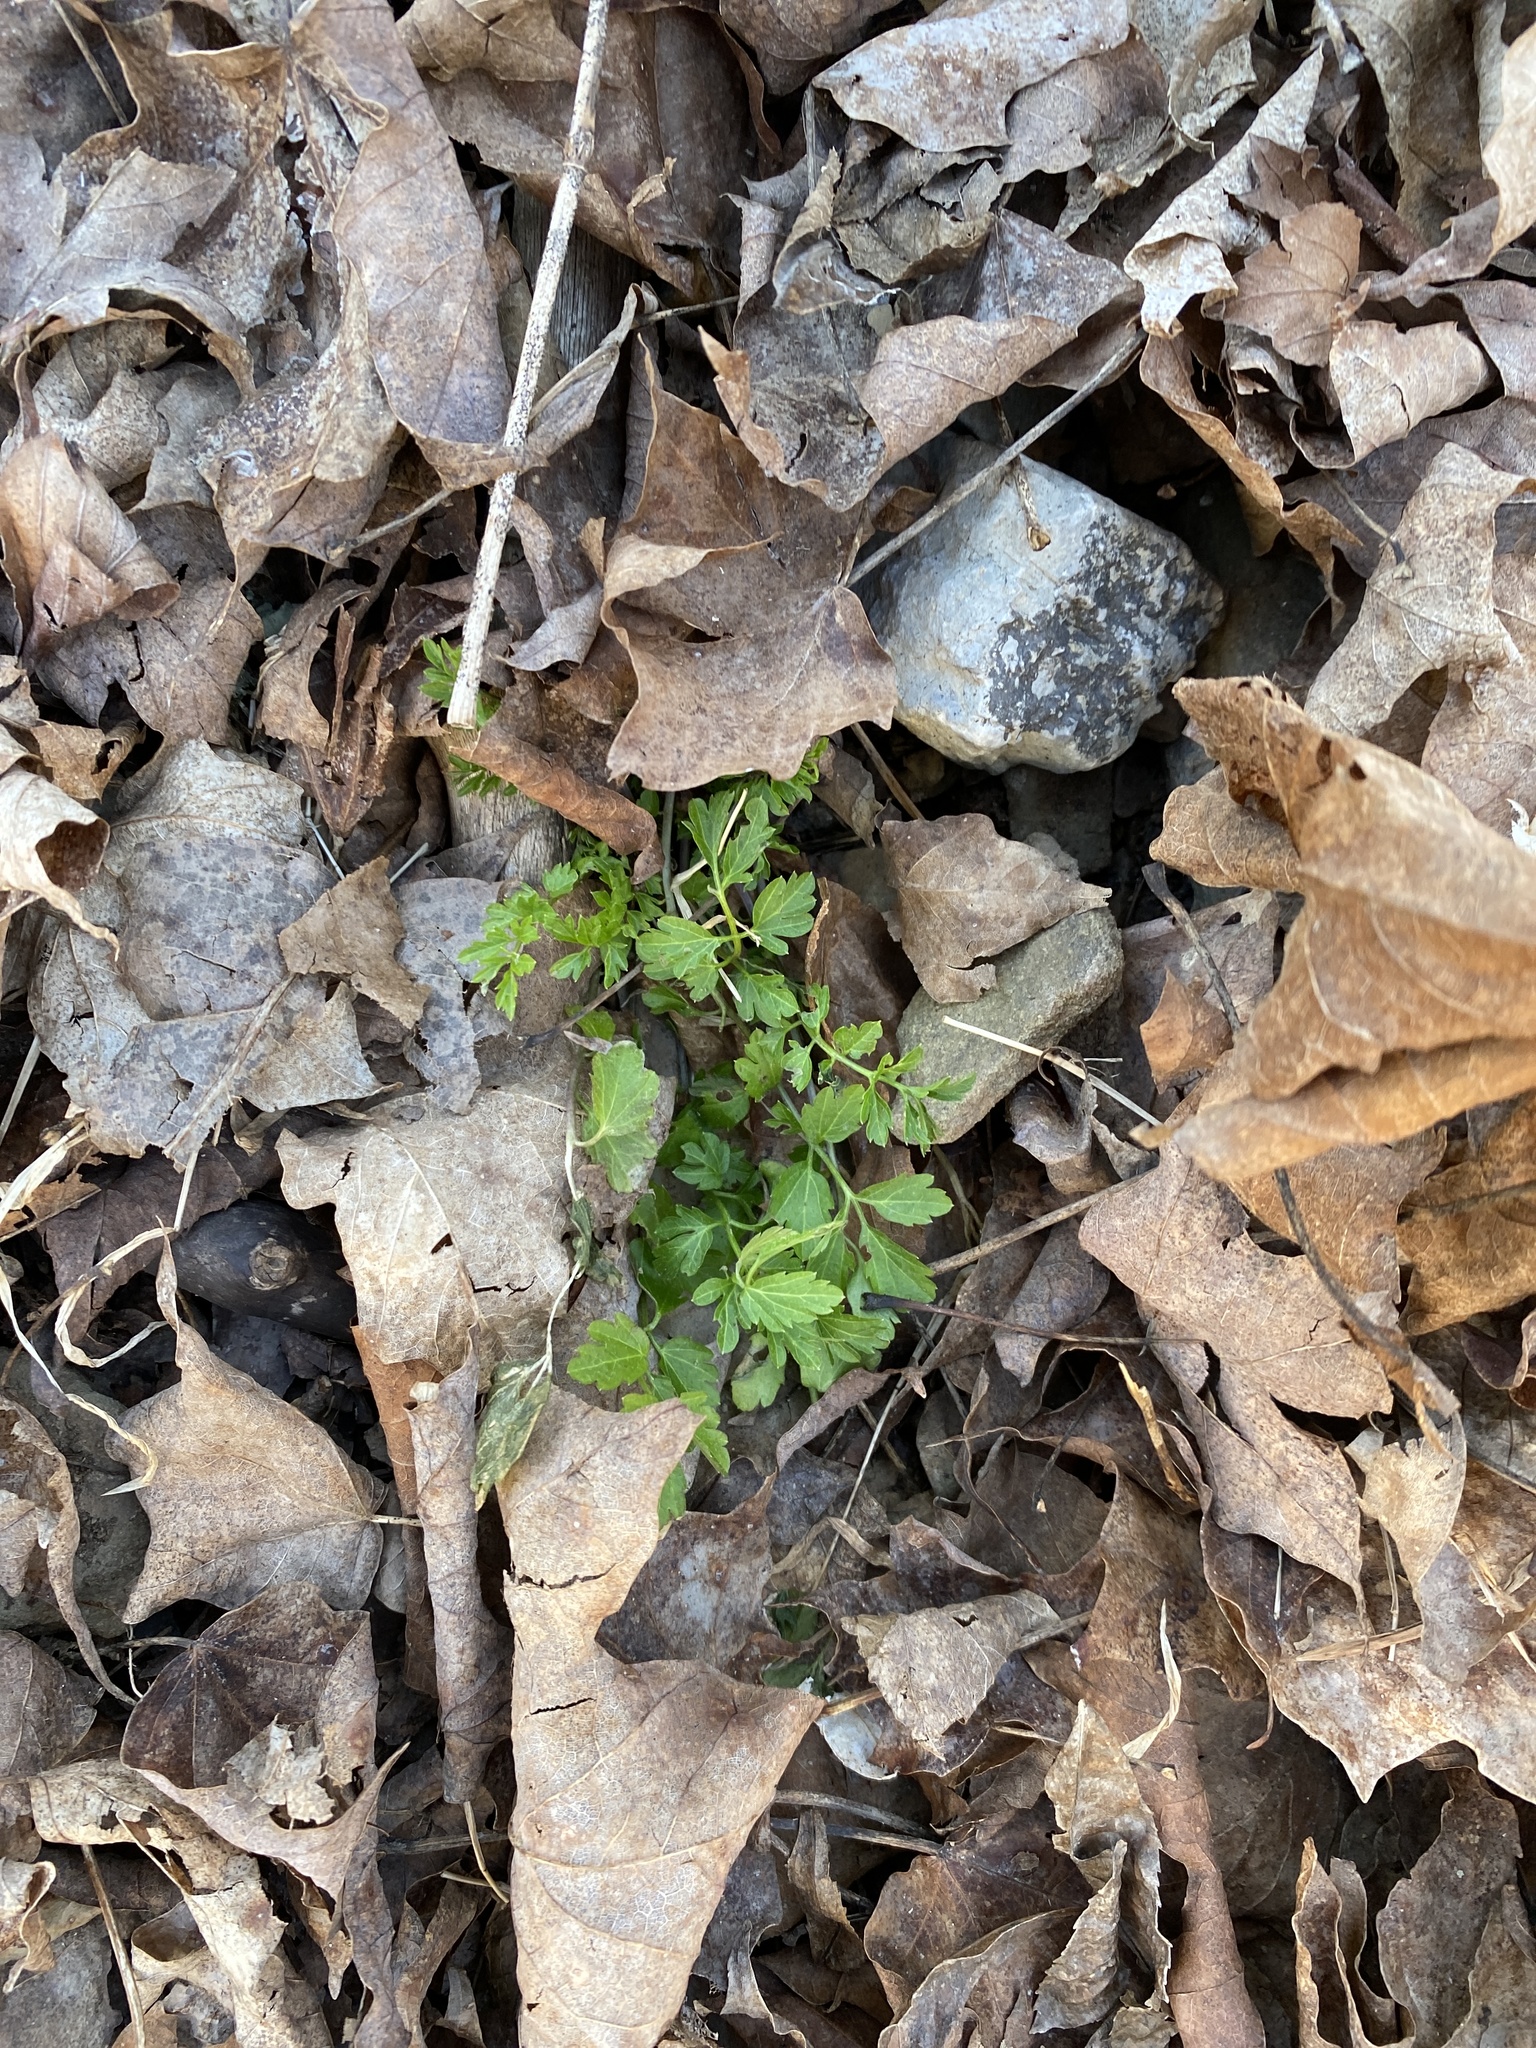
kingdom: Plantae
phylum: Tracheophyta
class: Magnoliopsida
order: Brassicales
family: Brassicaceae
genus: Cardamine
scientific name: Cardamine impatiens
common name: Narrow-leaved bitter-cress
